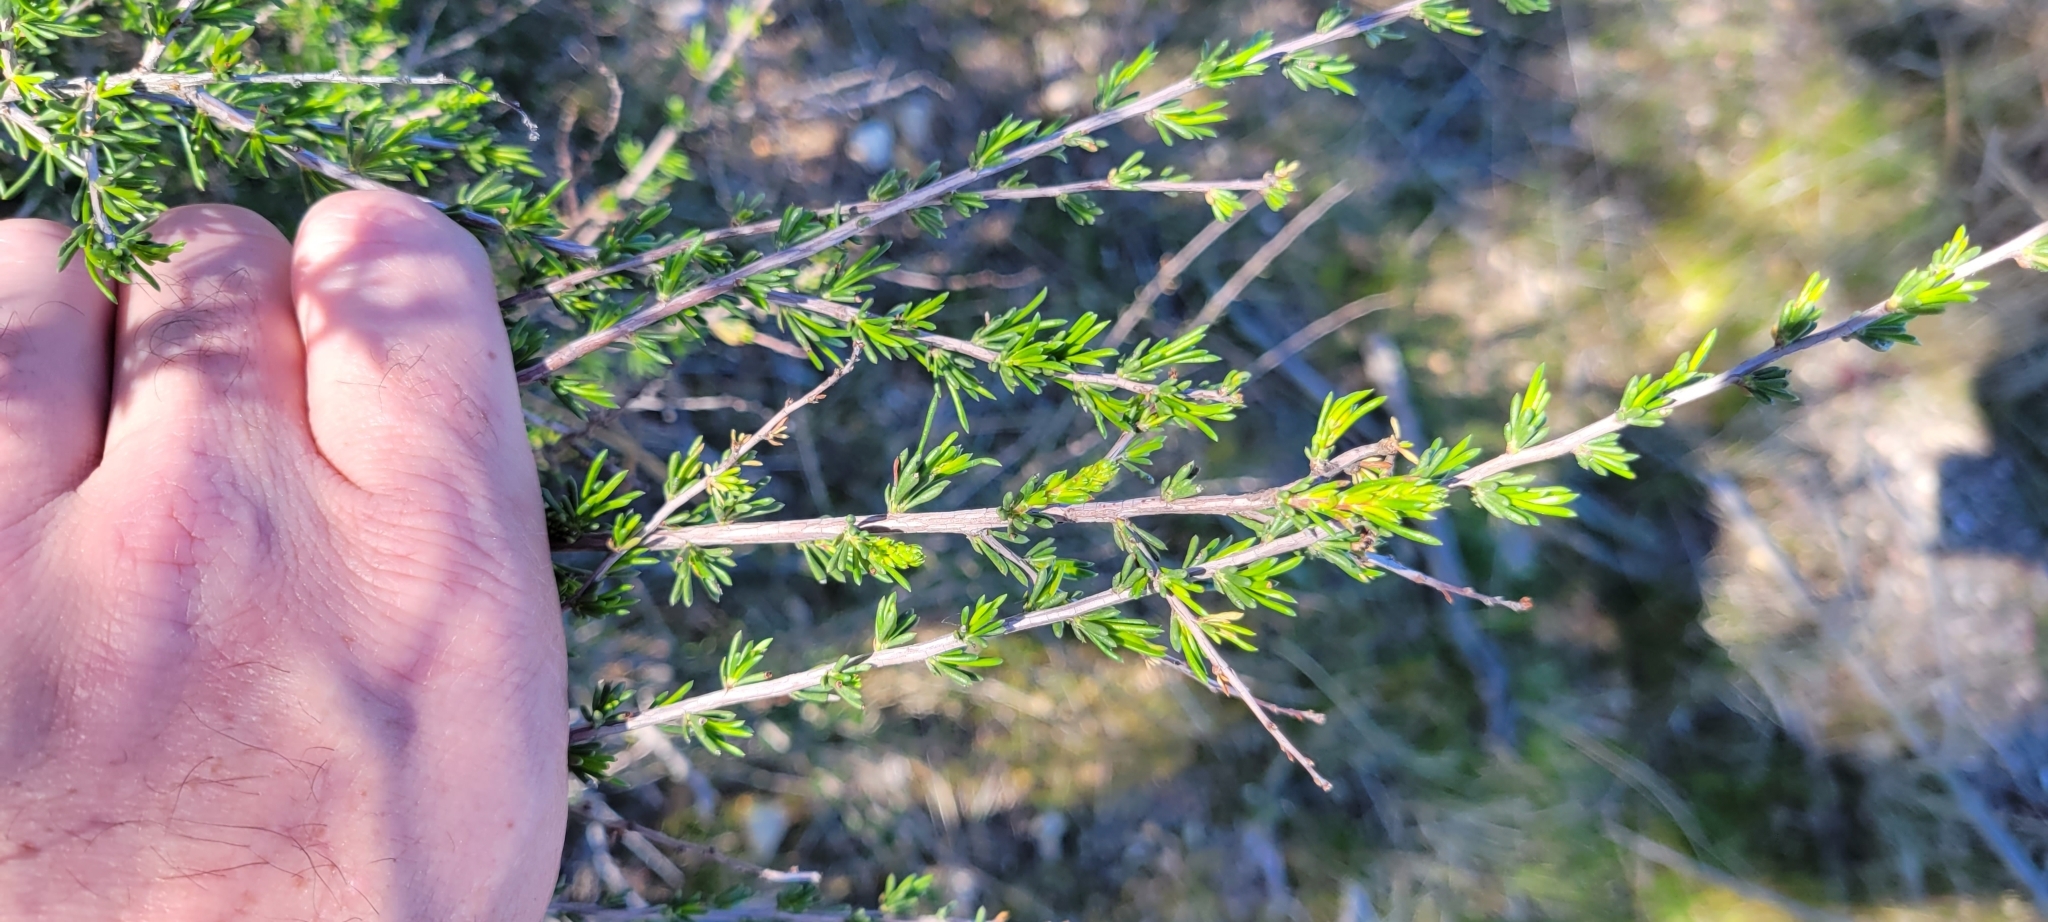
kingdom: Plantae
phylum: Tracheophyta
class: Magnoliopsida
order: Rosales
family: Rosaceae
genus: Adenostoma
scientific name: Adenostoma fasciculatum
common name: Chamise
